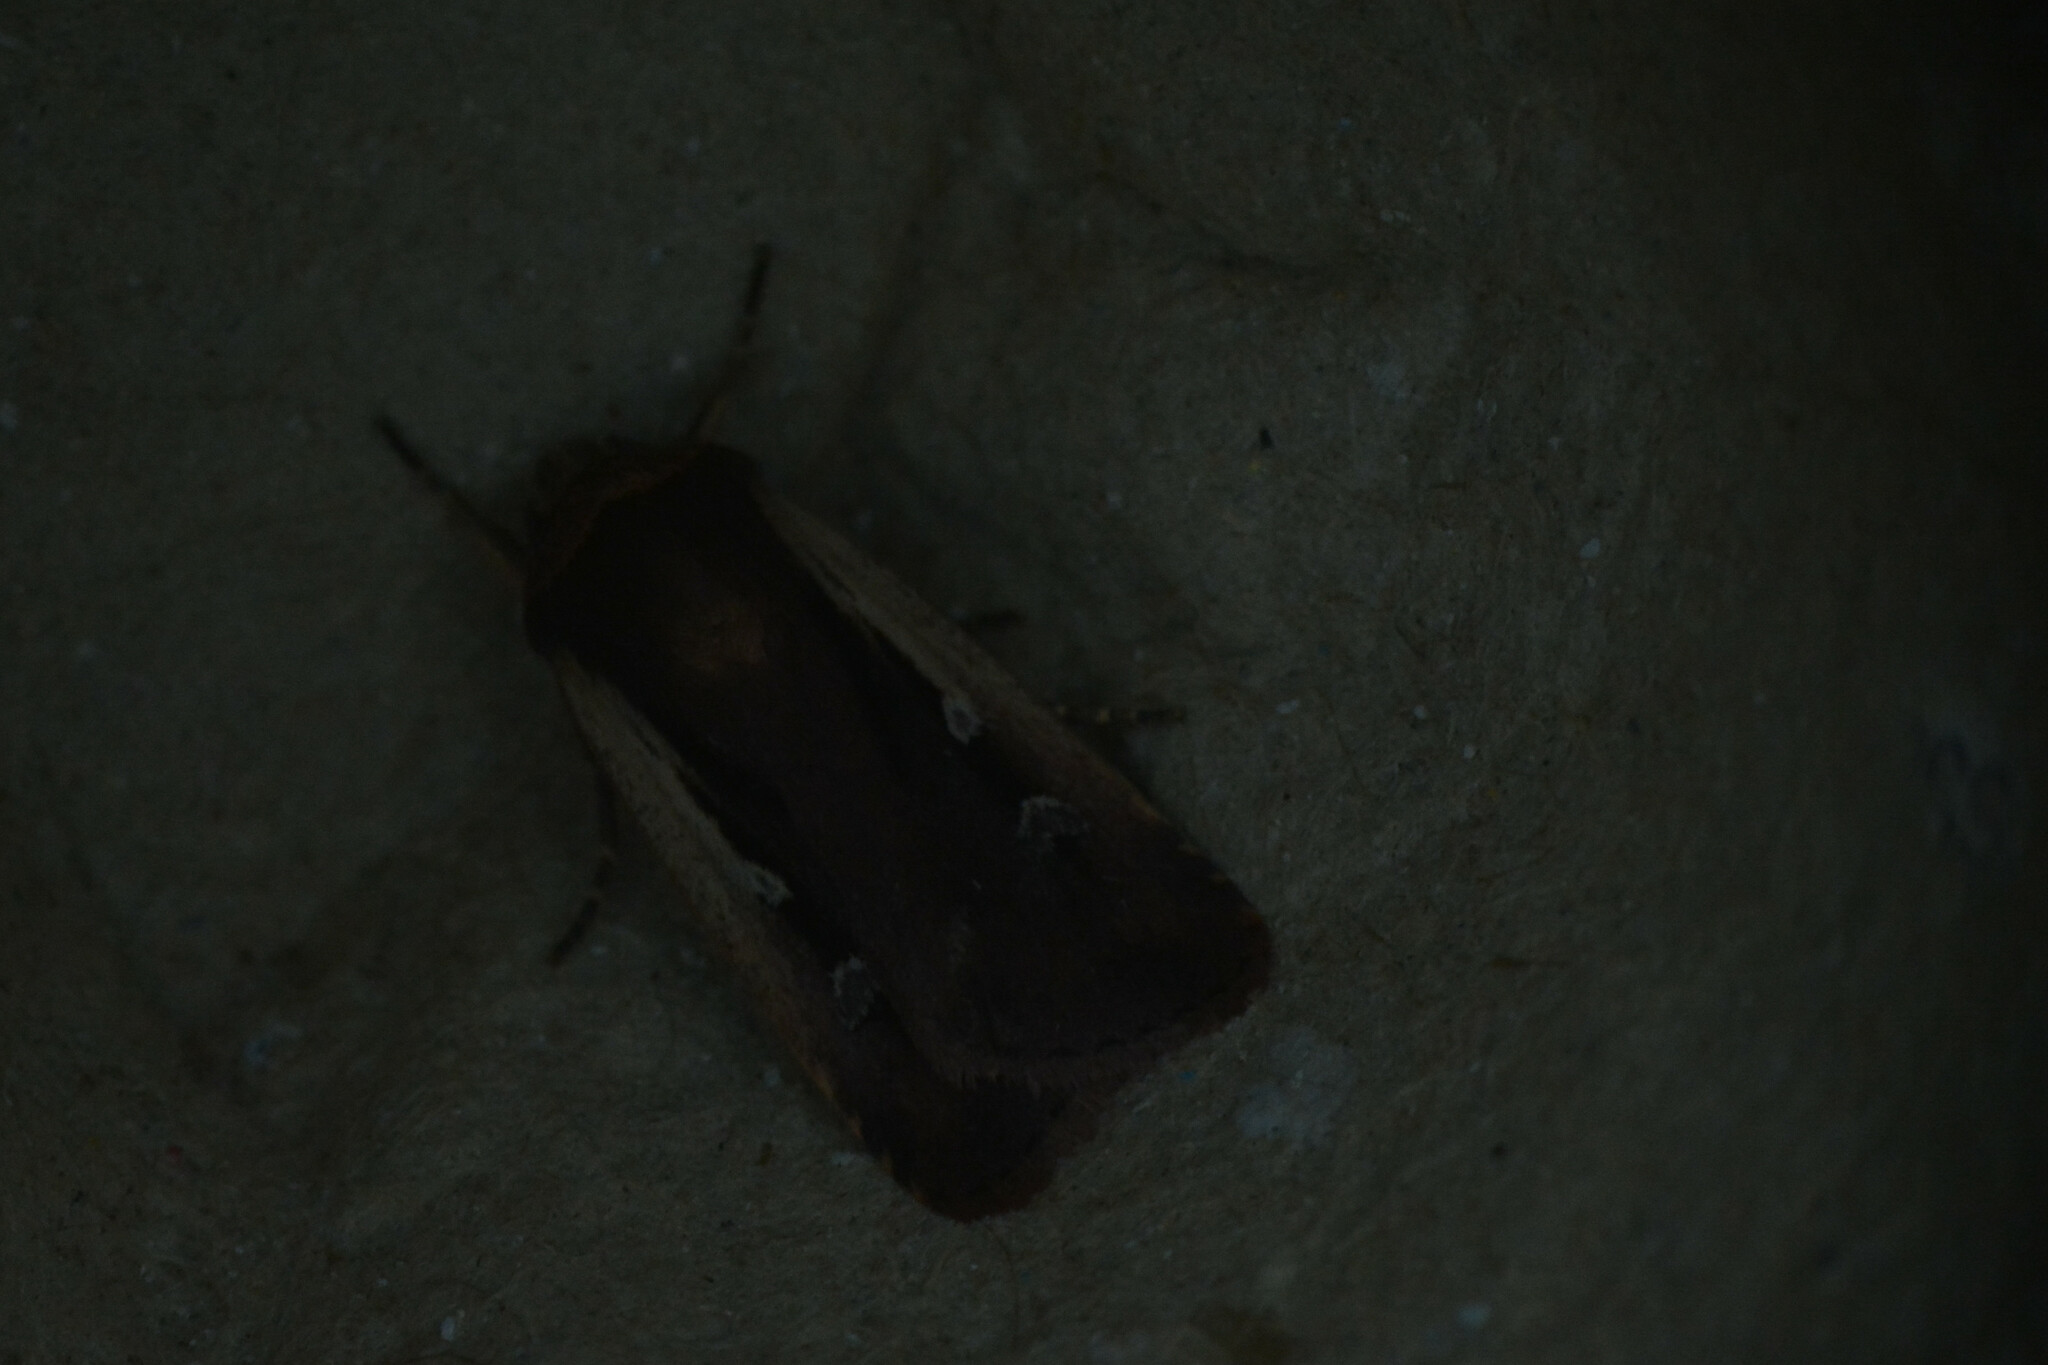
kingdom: Animalia
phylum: Arthropoda
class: Insecta
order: Lepidoptera
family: Noctuidae
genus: Ochropleura
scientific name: Ochropleura plecta
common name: Flame shoulder
